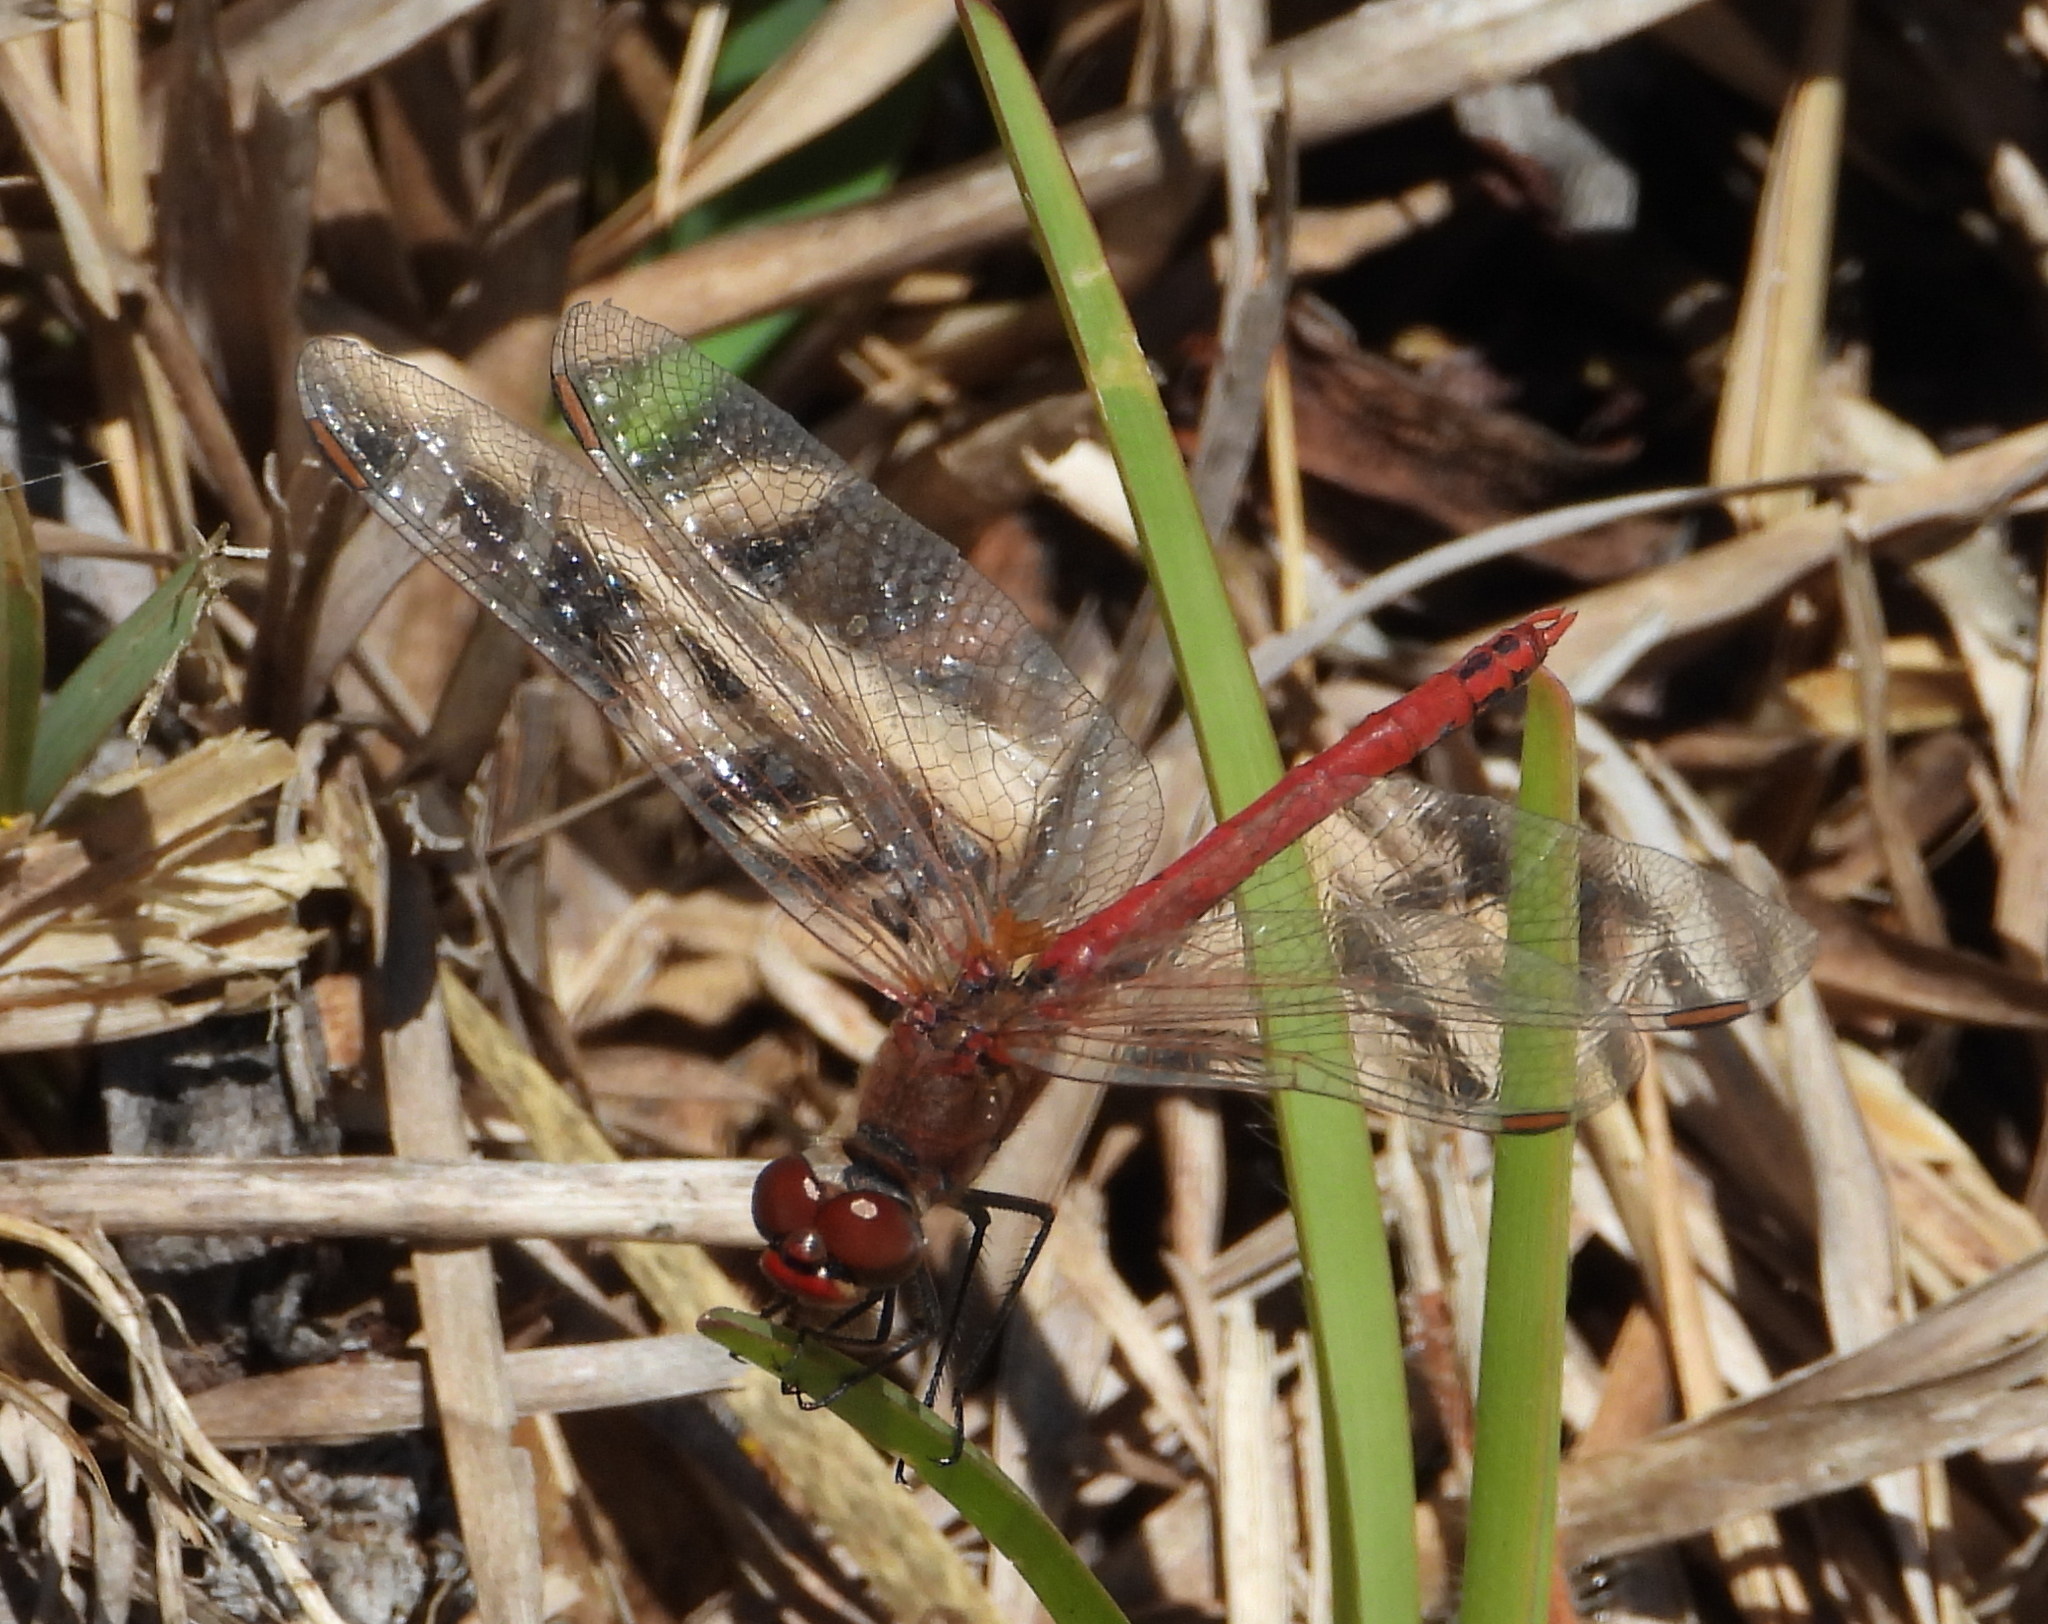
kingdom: Animalia
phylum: Arthropoda
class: Insecta
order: Odonata
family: Libellulidae
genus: Sympetrum
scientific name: Sympetrum fonscolombii
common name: Red-veined darter
